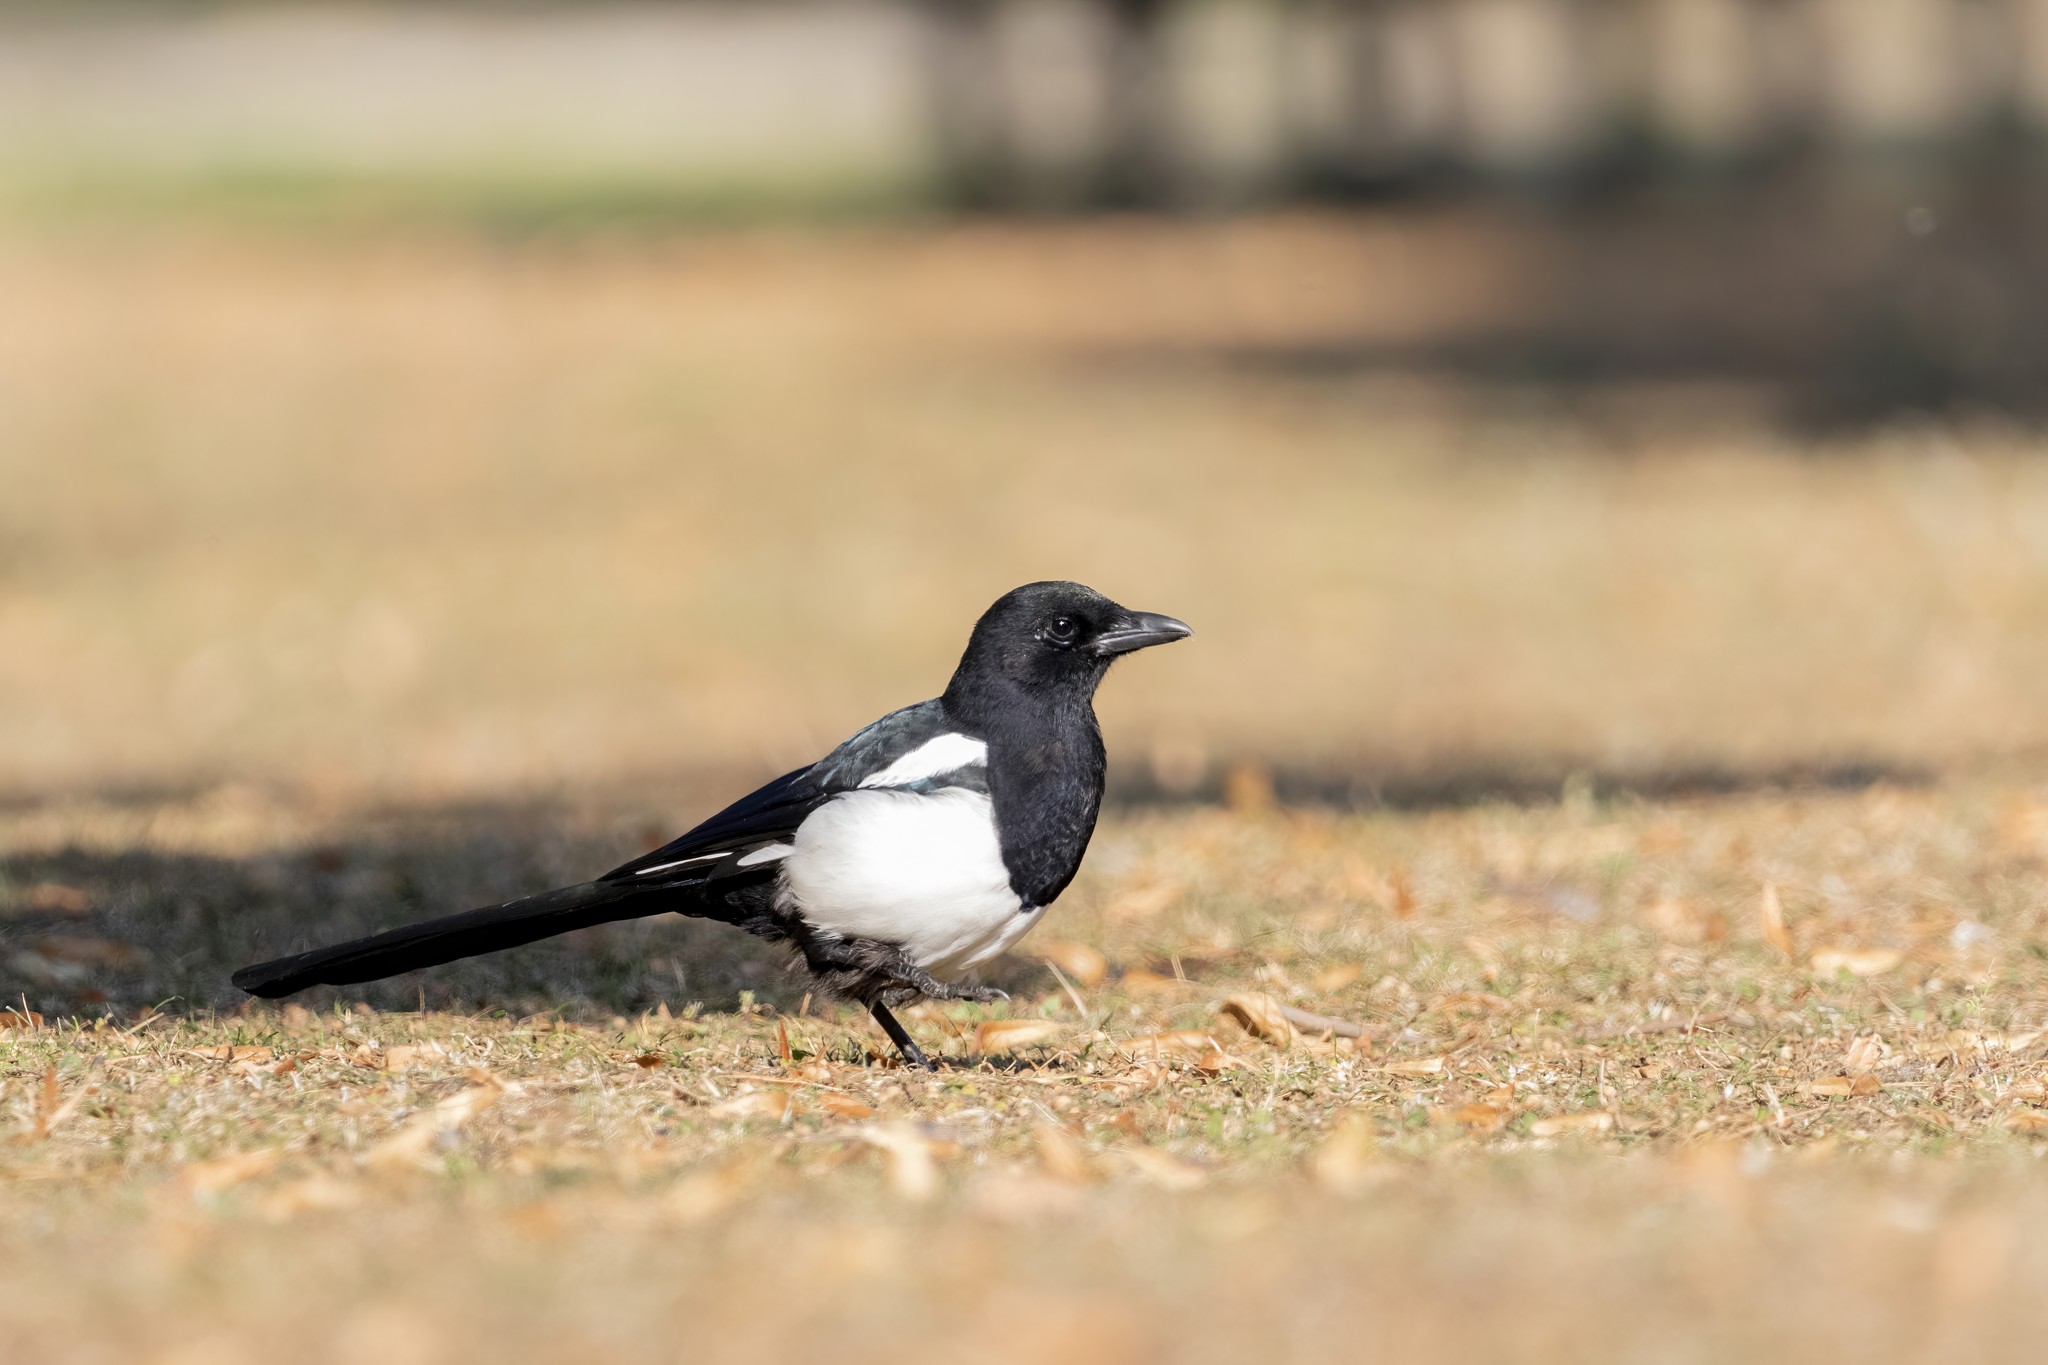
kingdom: Animalia
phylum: Chordata
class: Aves
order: Passeriformes
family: Corvidae
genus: Pica
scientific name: Pica pica
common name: Eurasian magpie
